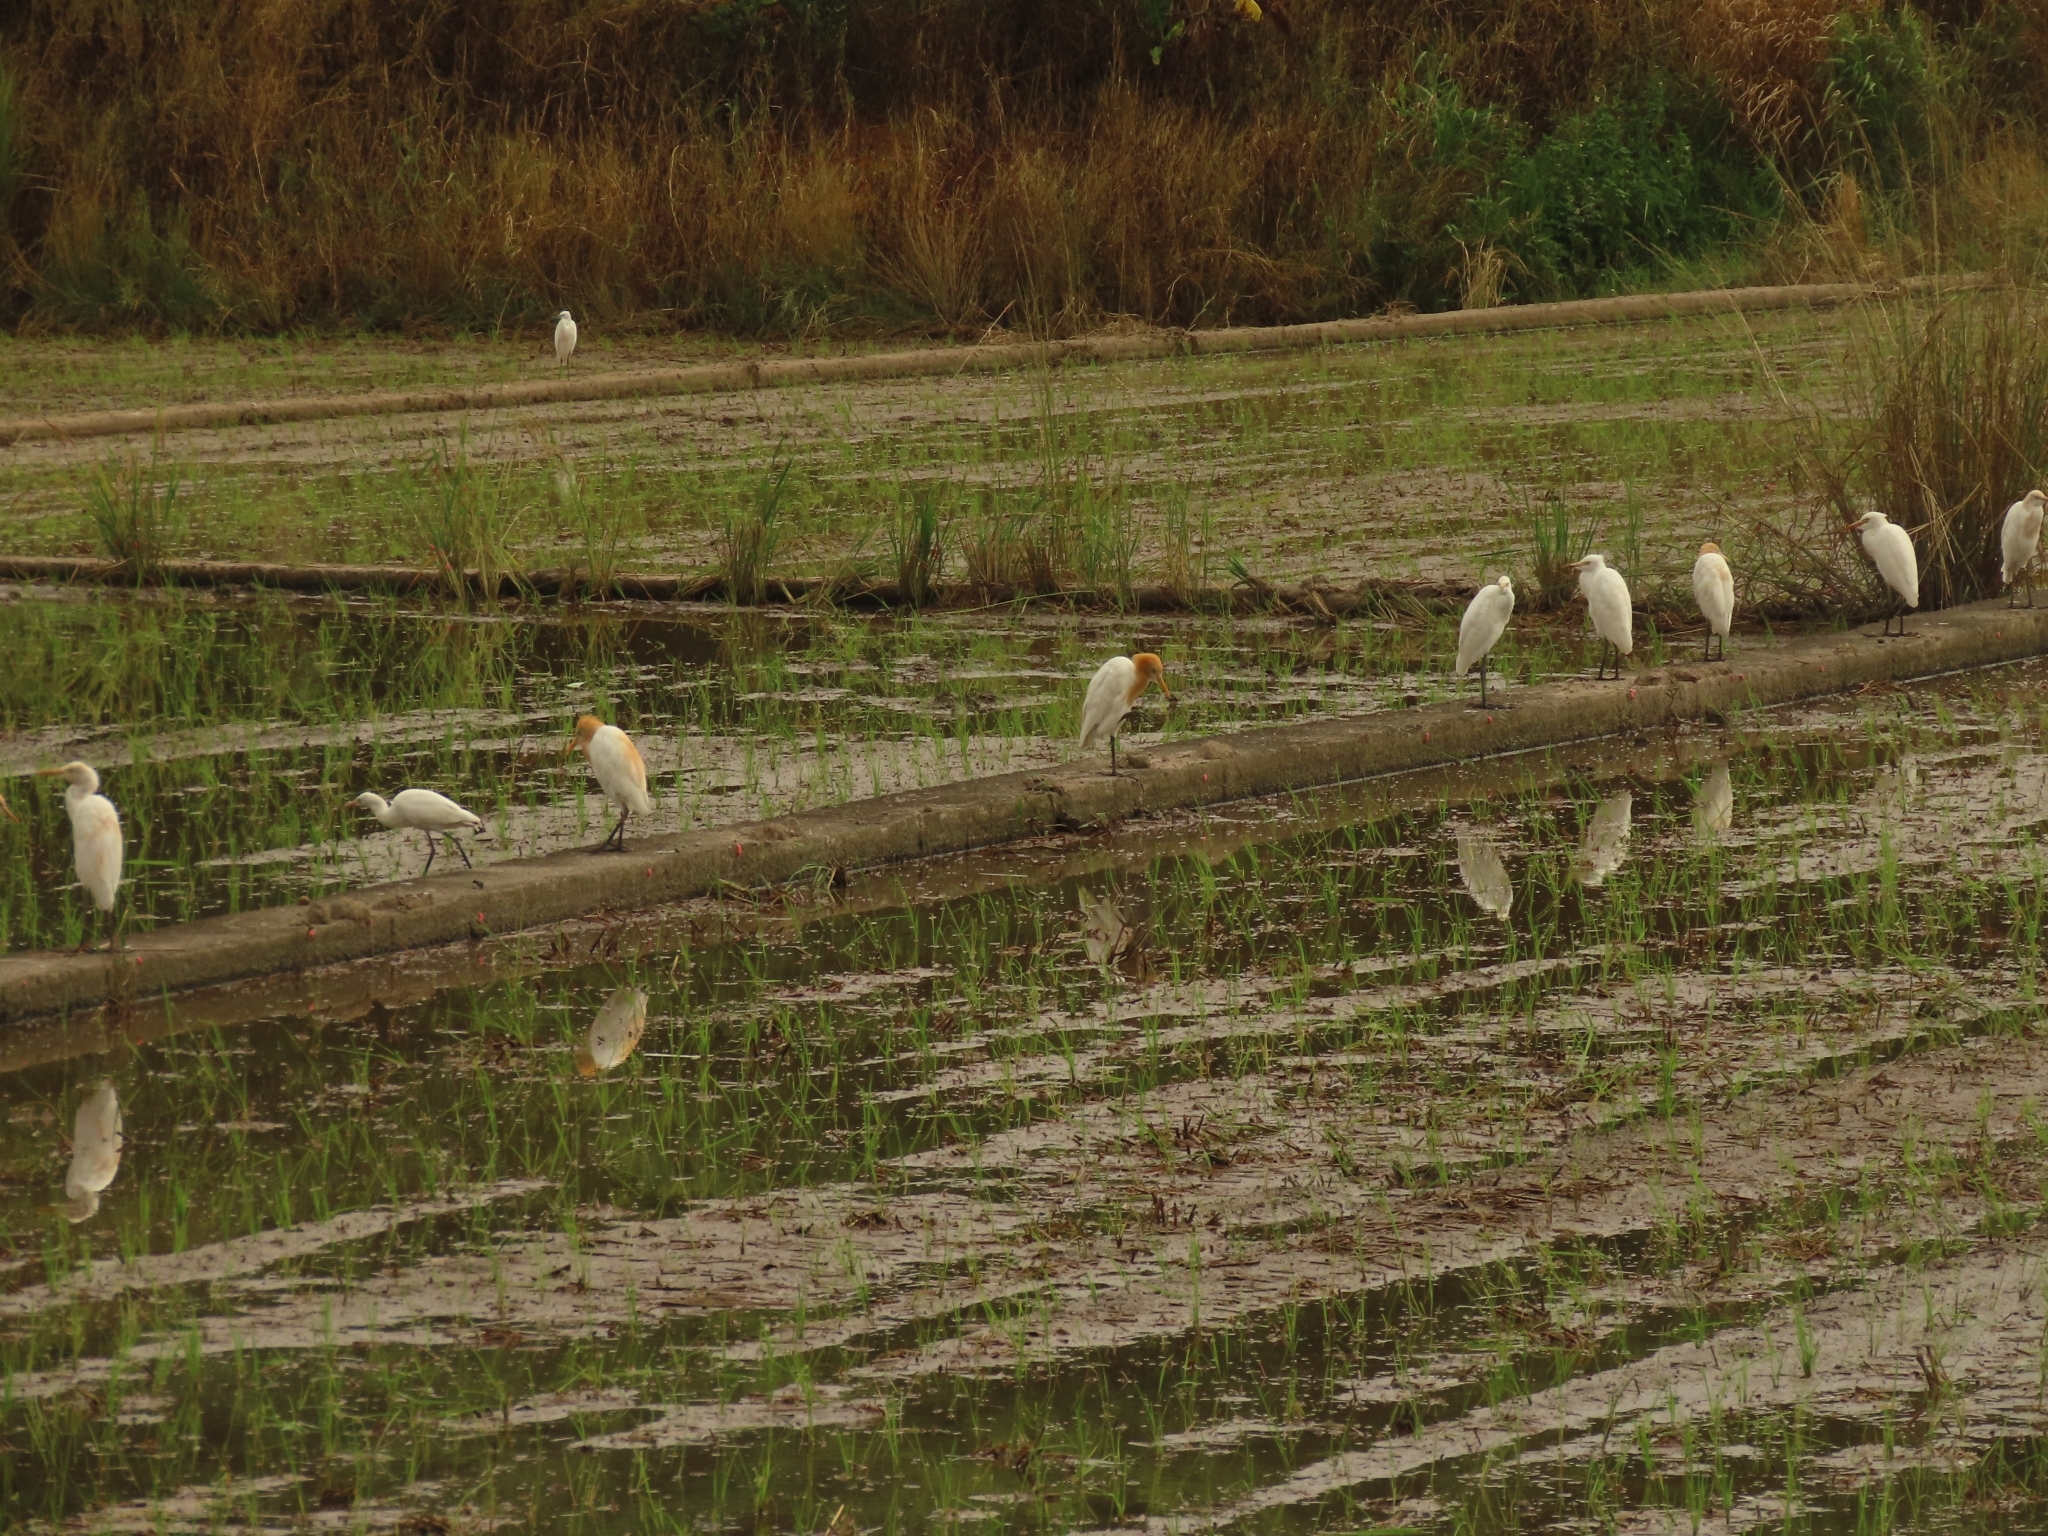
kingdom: Animalia
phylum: Chordata
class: Aves
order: Pelecaniformes
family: Ardeidae
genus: Bubulcus
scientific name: Bubulcus coromandus
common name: Eastern cattle egret
